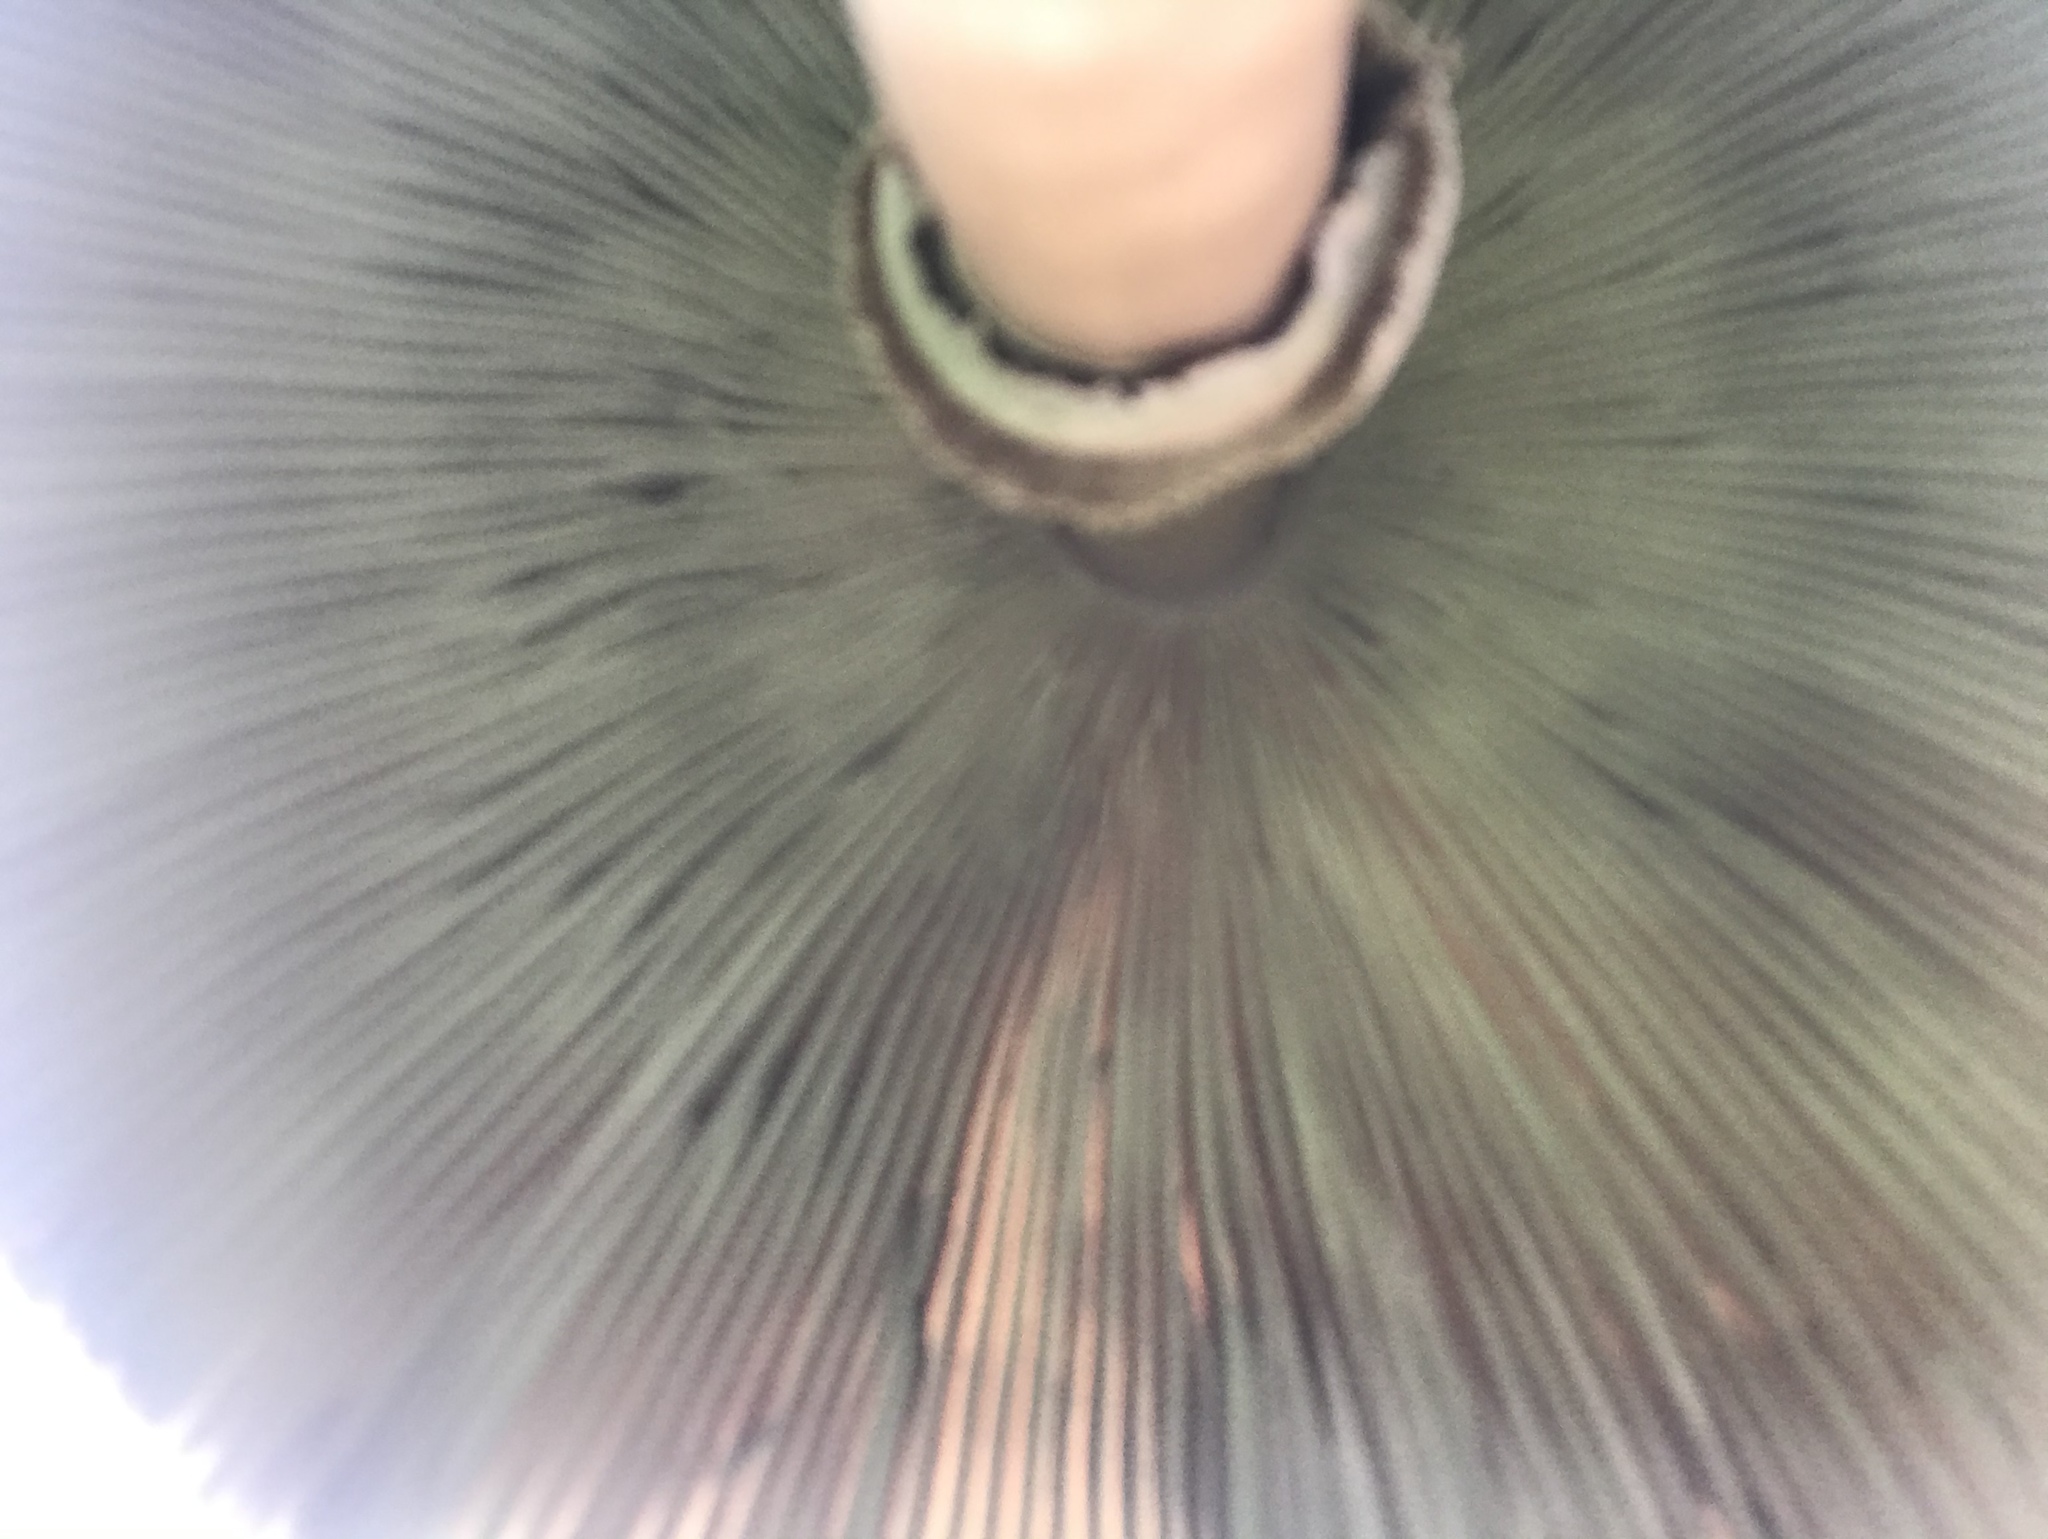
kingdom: Fungi
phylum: Basidiomycota
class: Agaricomycetes
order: Agaricales
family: Agaricaceae
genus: Chlorophyllum
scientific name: Chlorophyllum molybdites
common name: False parasol
